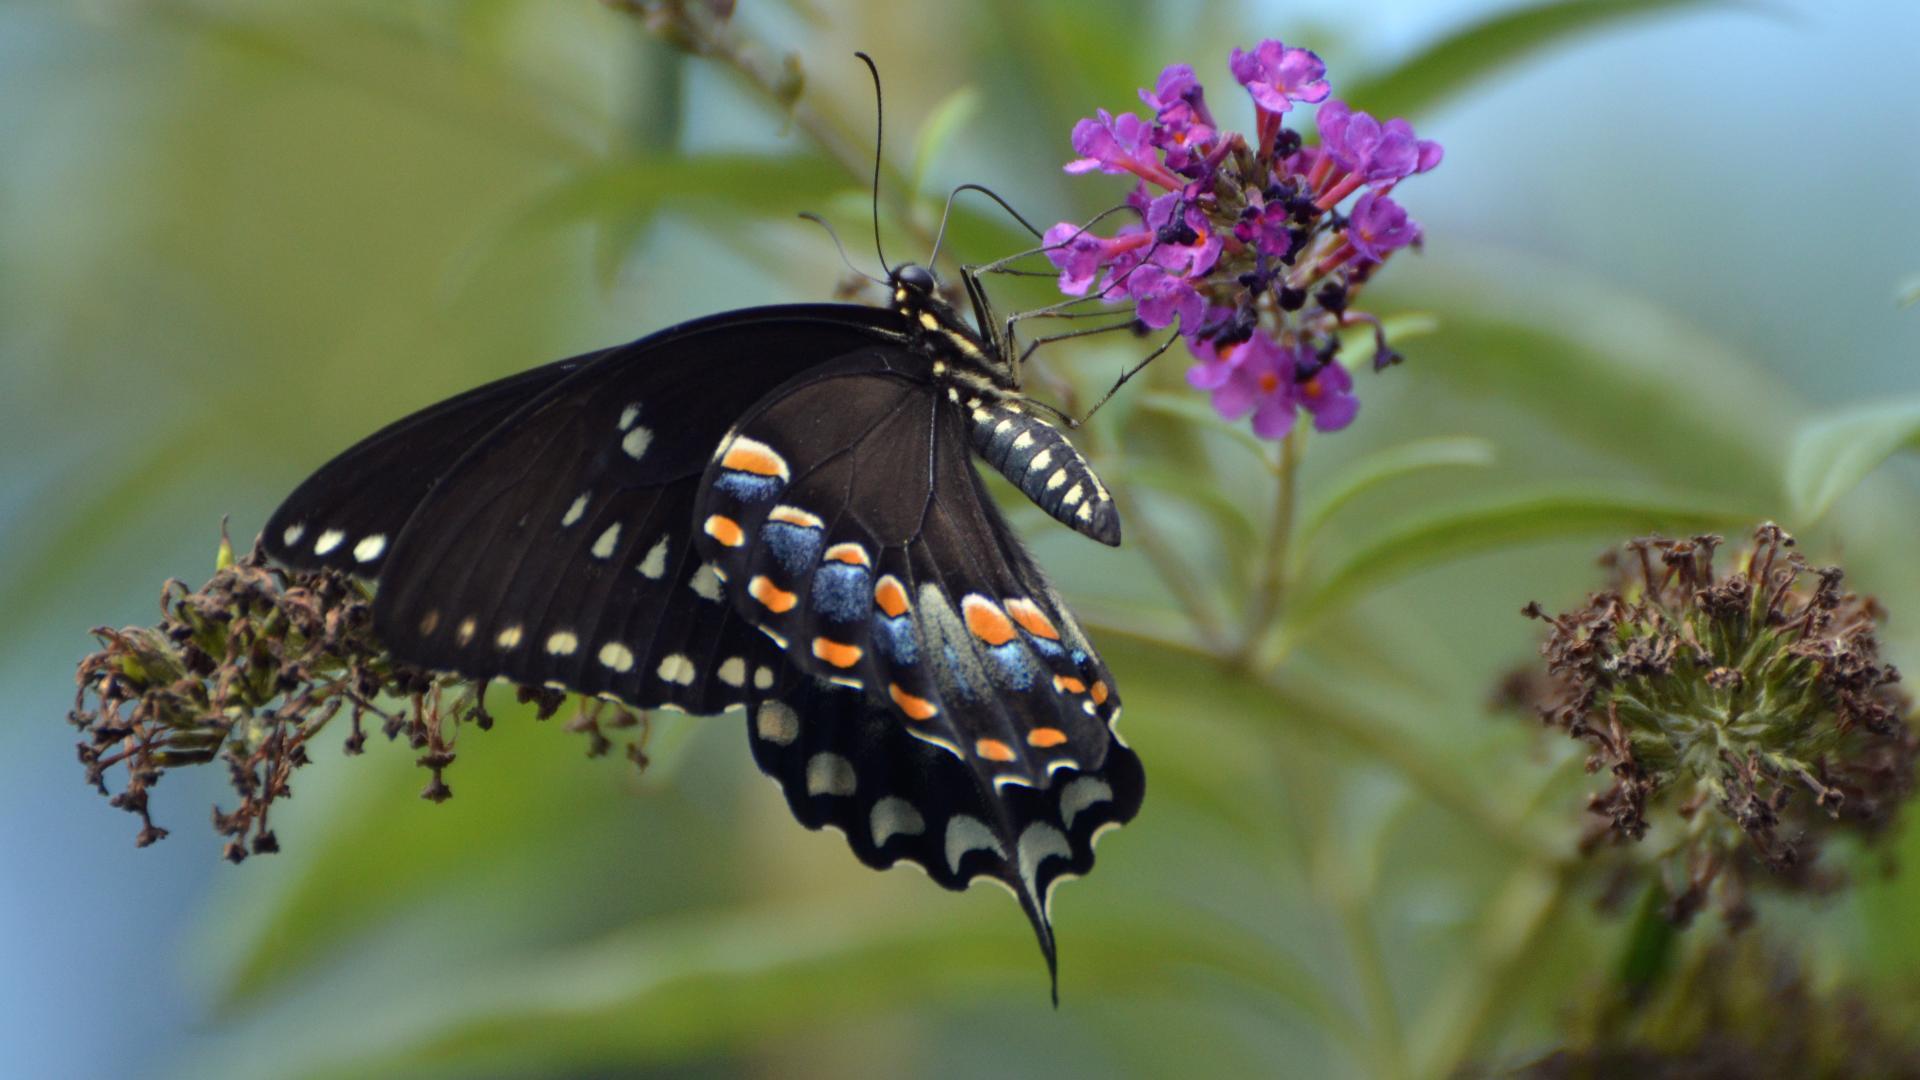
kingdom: Animalia
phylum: Arthropoda
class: Insecta
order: Lepidoptera
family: Papilionidae
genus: Papilio
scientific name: Papilio troilus
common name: Spicebush swallowtail
